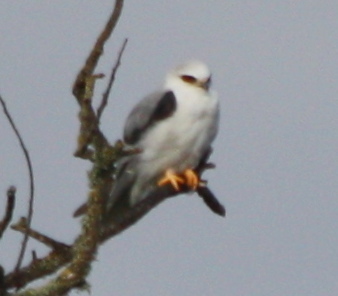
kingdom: Animalia
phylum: Chordata
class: Aves
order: Accipitriformes
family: Accipitridae
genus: Elanus
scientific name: Elanus leucurus
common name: White-tailed kite
